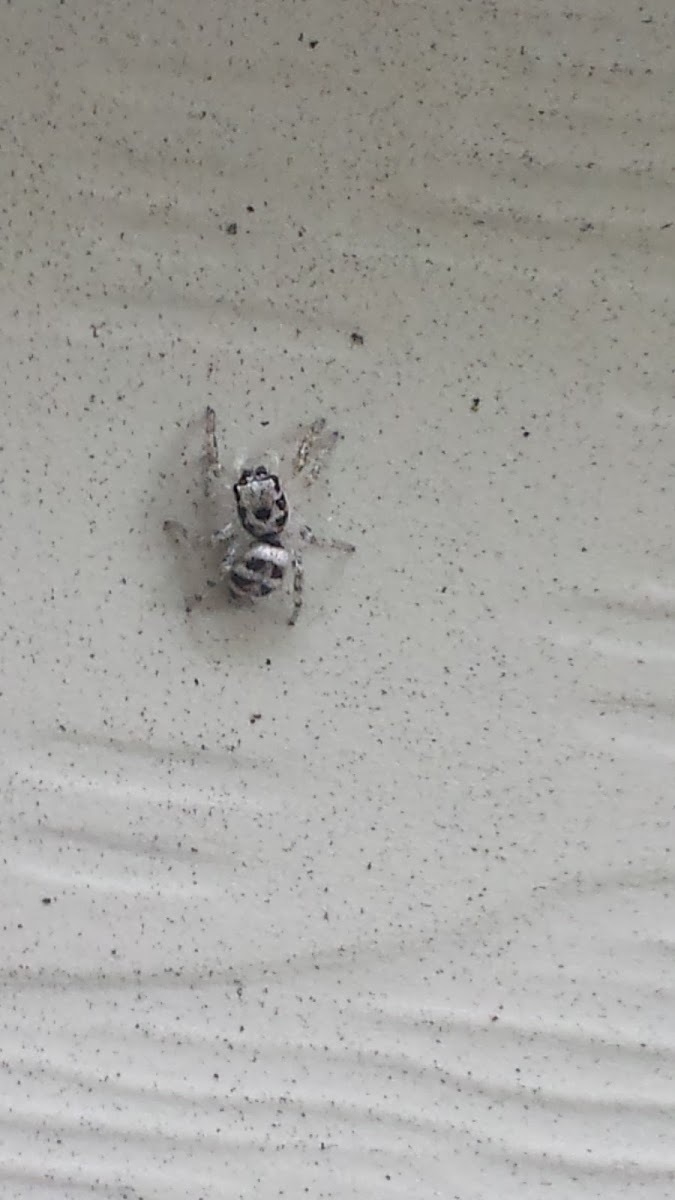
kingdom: Animalia
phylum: Arthropoda
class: Arachnida
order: Araneae
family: Salticidae
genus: Salticus
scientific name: Salticus scenicus
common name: Zebra jumper
